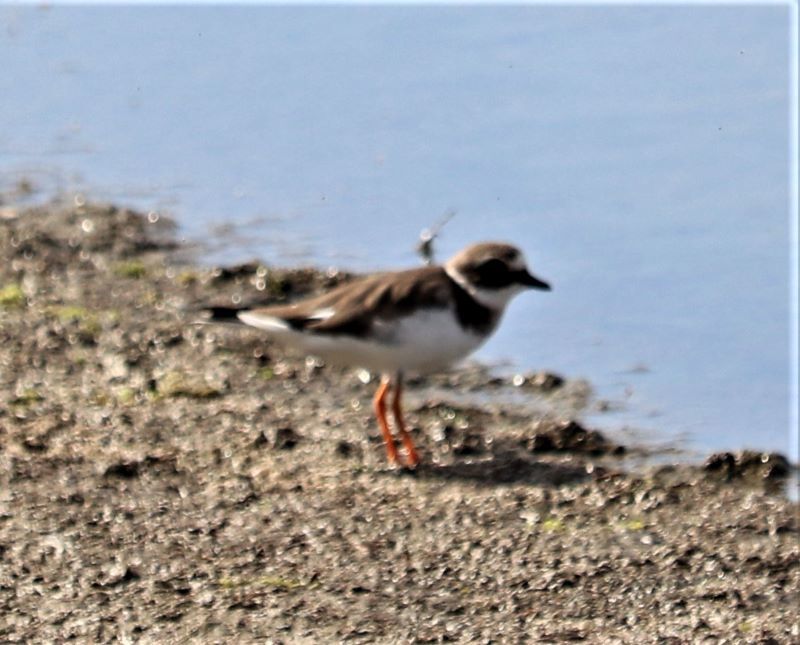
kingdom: Animalia
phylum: Chordata
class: Aves
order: Charadriiformes
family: Charadriidae
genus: Charadrius
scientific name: Charadrius hiaticula
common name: Common ringed plover
